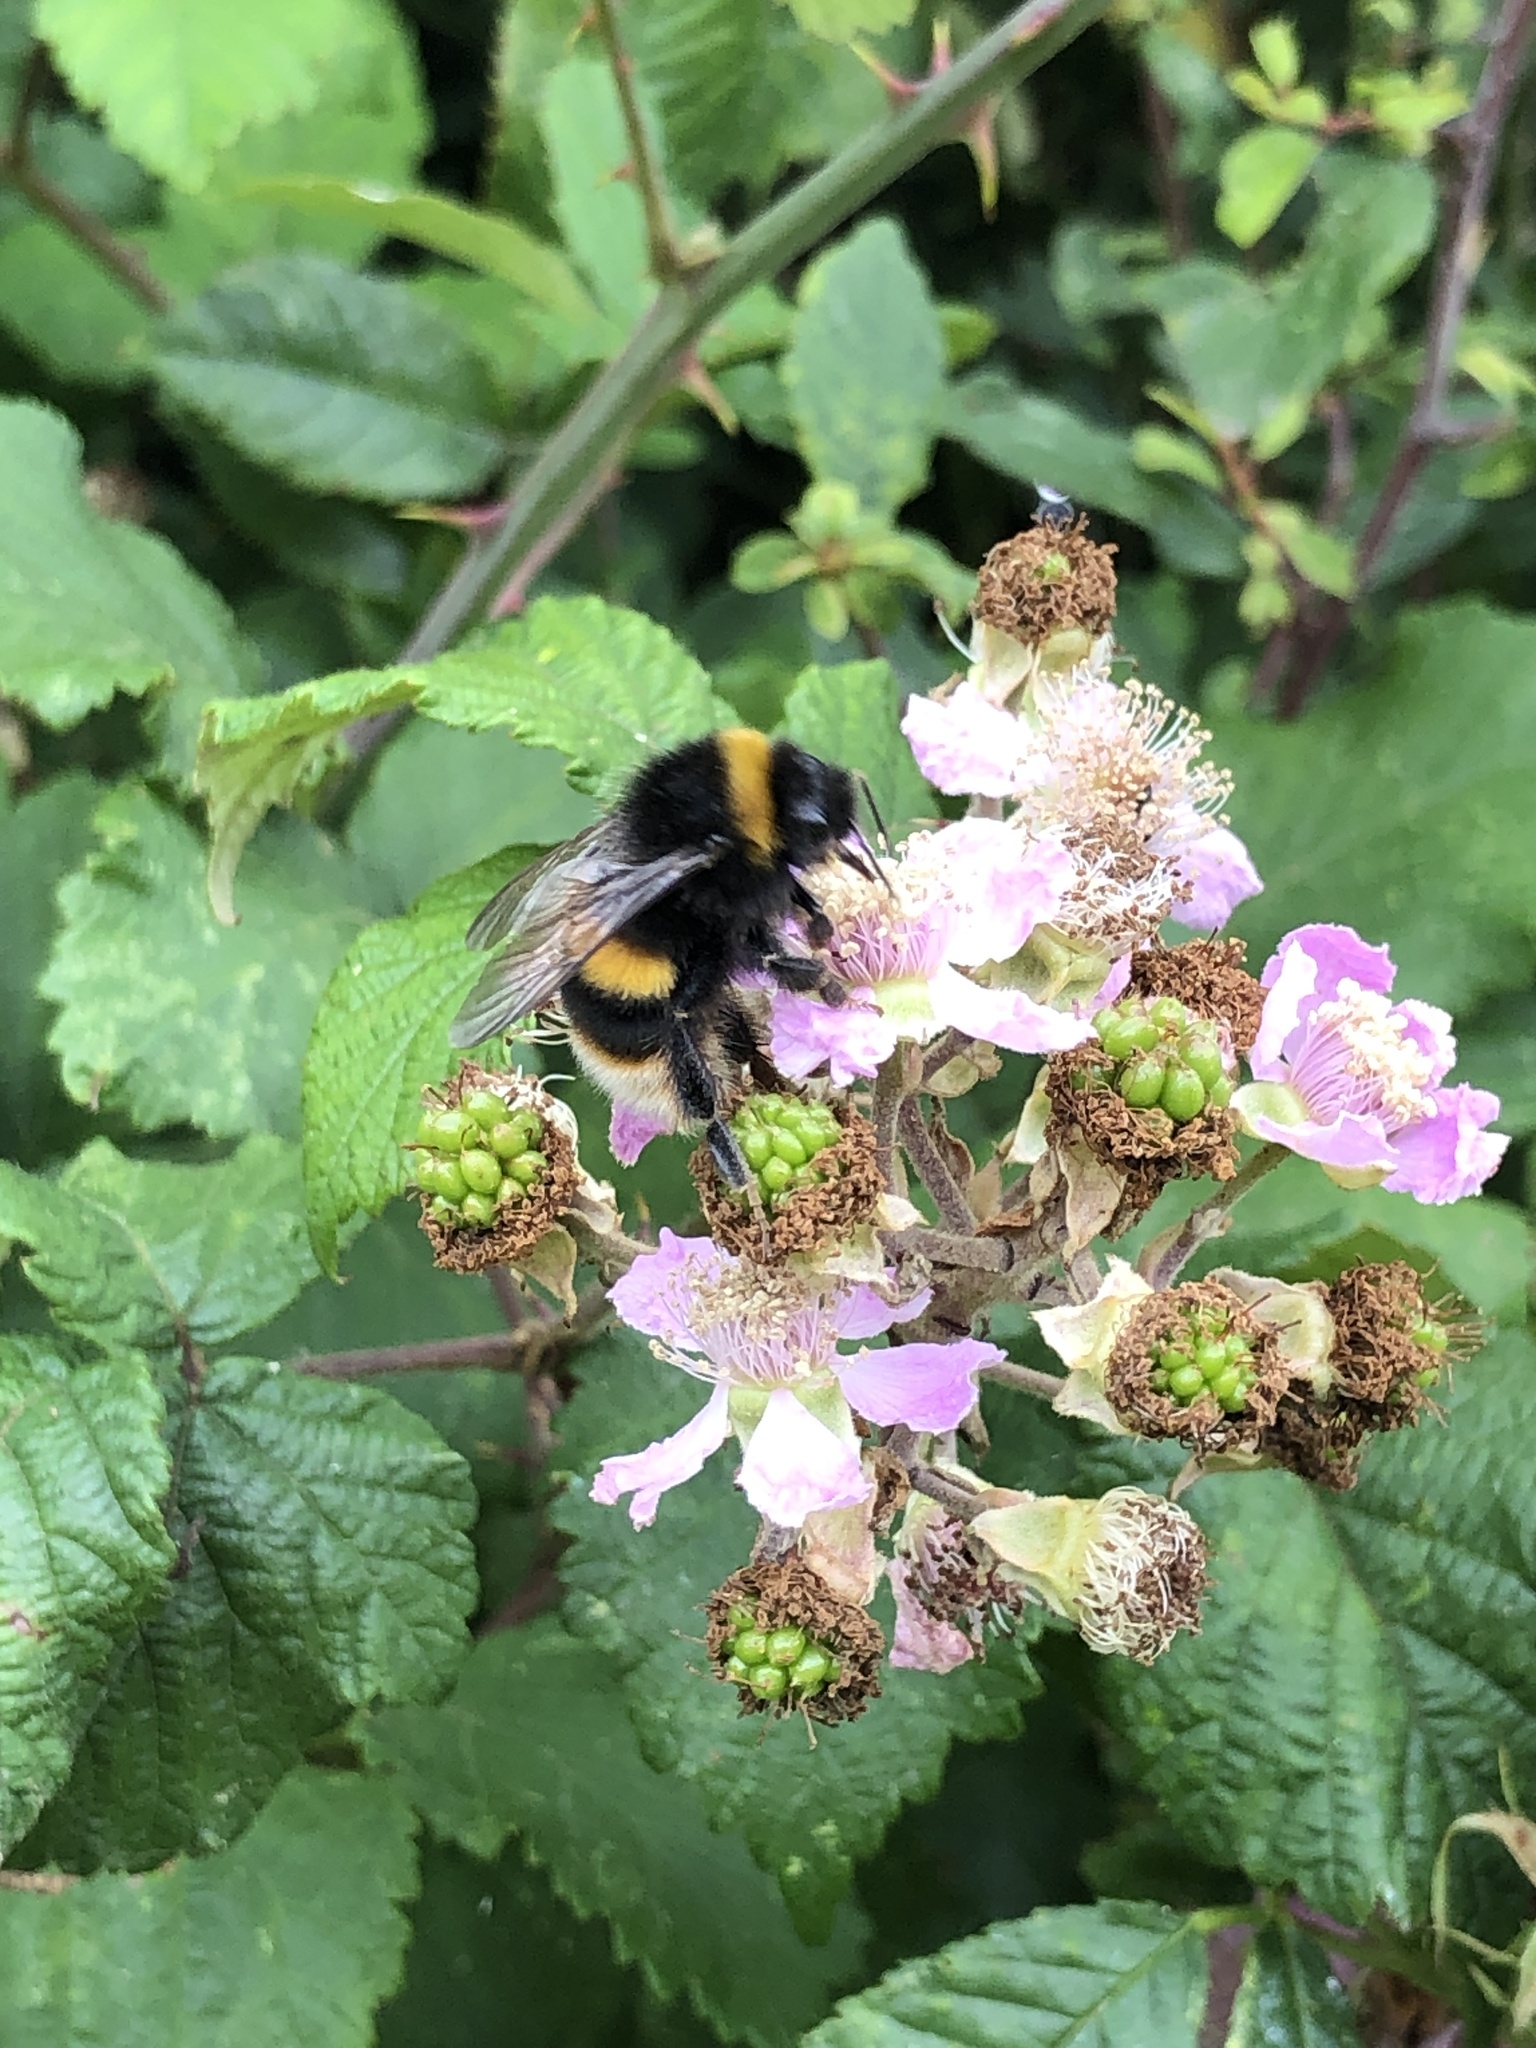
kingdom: Animalia
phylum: Arthropoda
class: Insecta
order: Hymenoptera
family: Apidae
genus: Bombus
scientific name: Bombus terrestris
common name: Buff-tailed bumblebee
